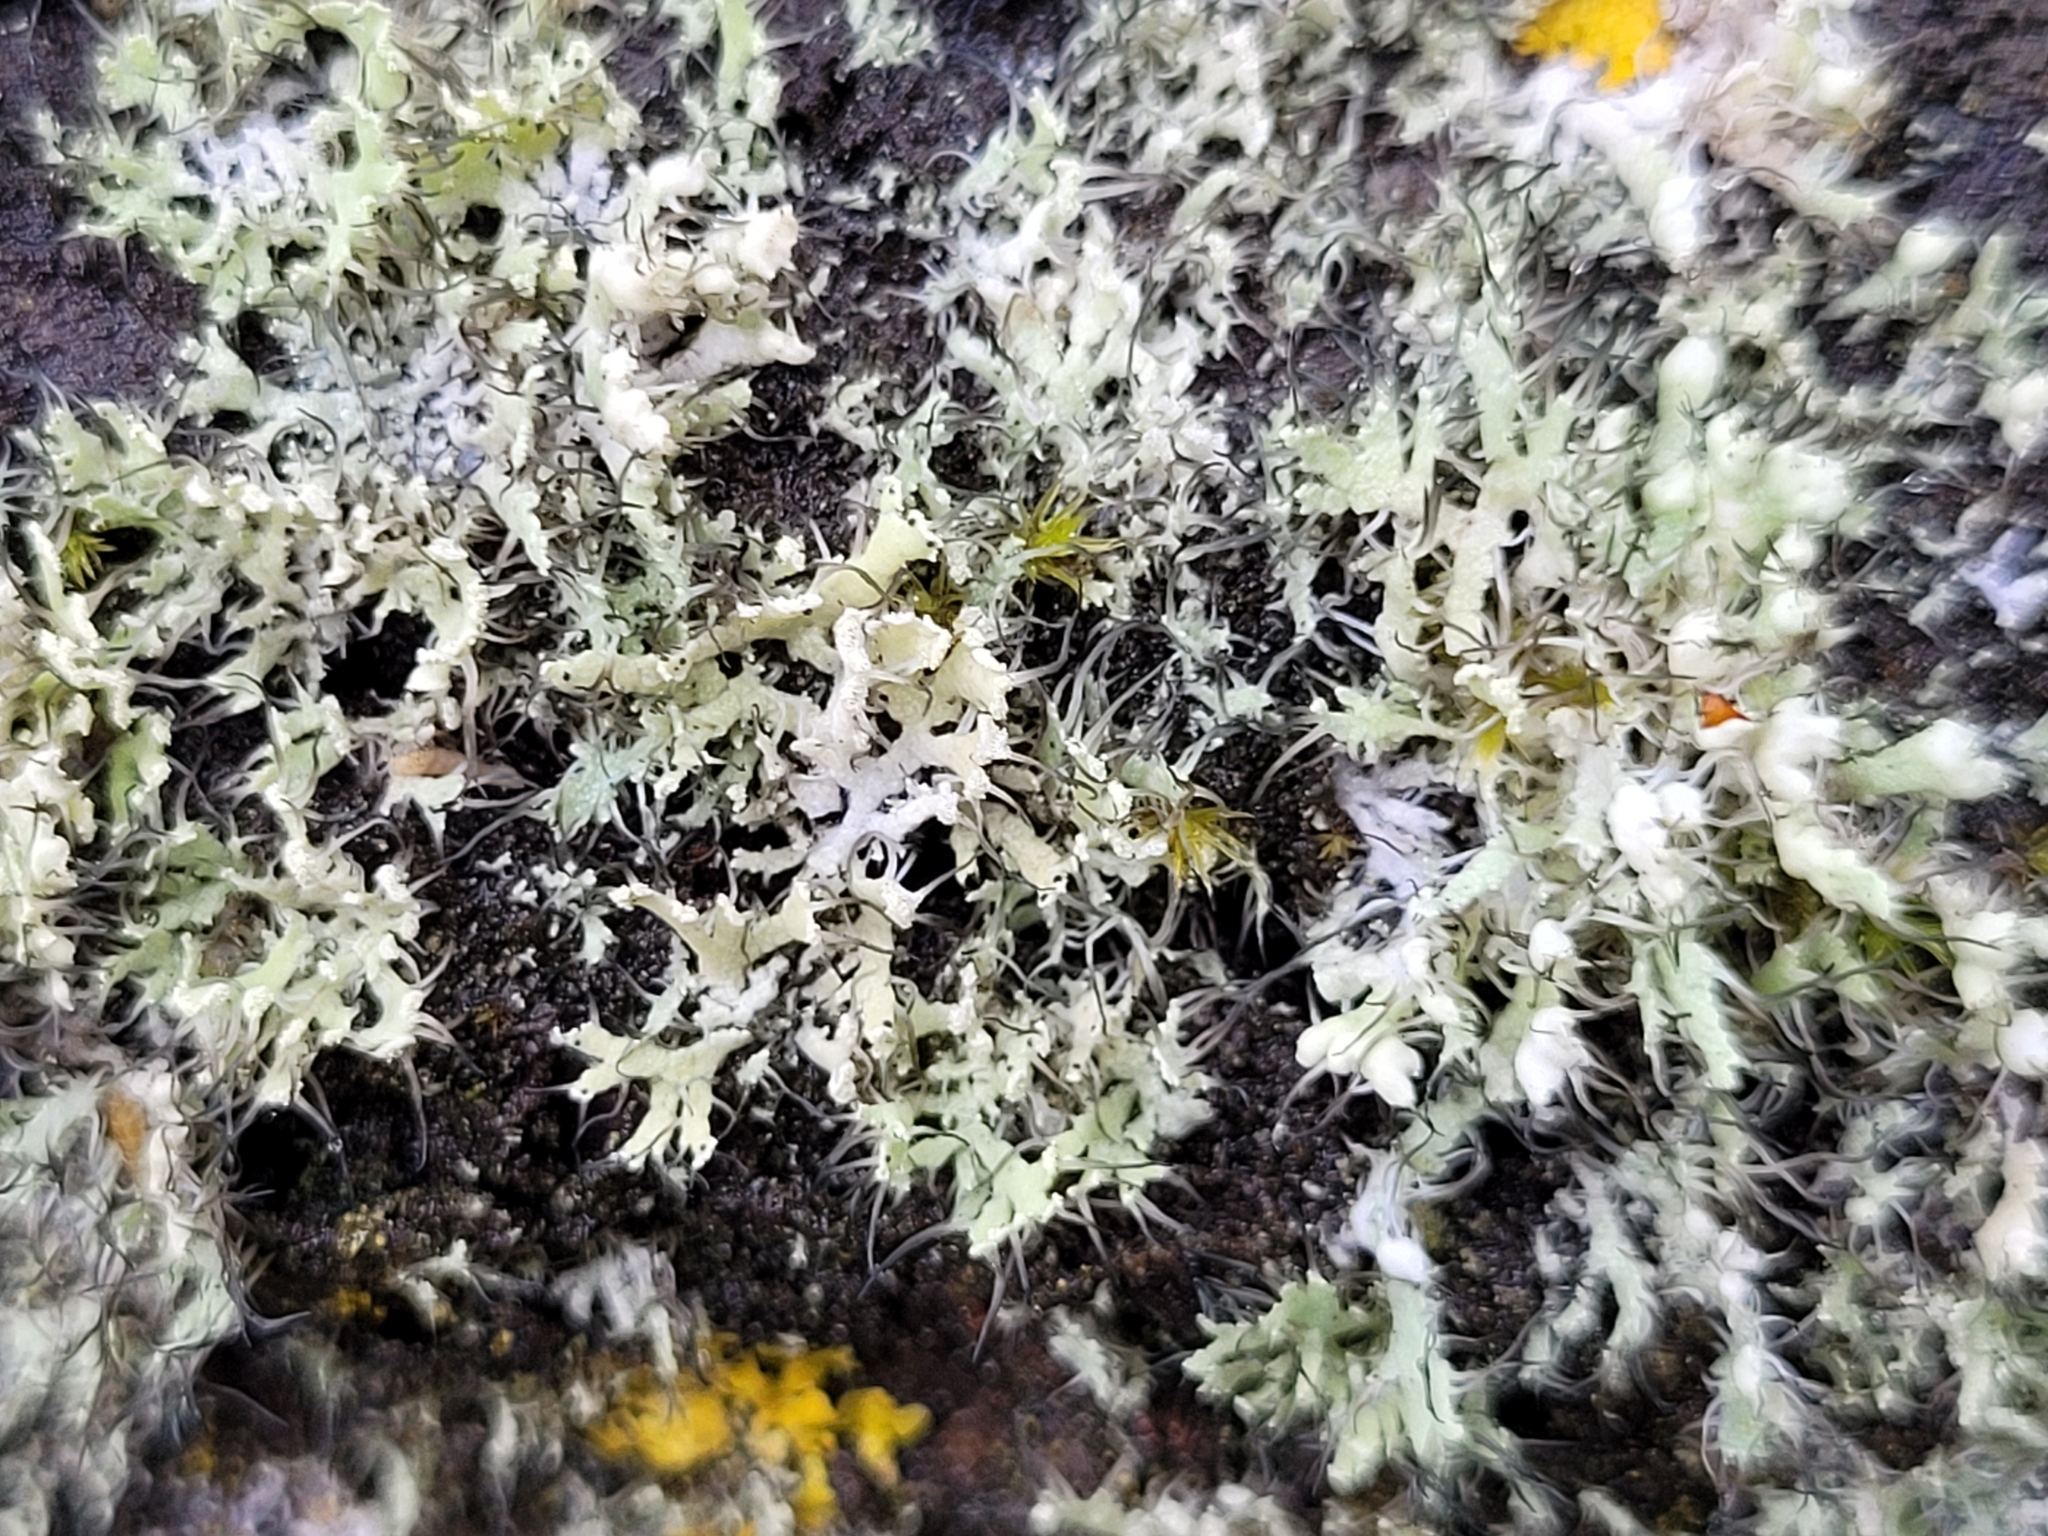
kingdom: Fungi
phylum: Ascomycota
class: Lecanoromycetes
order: Caliciales
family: Physciaceae
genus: Physcia
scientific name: Physcia adscendens
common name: Hooded rosette lichen
